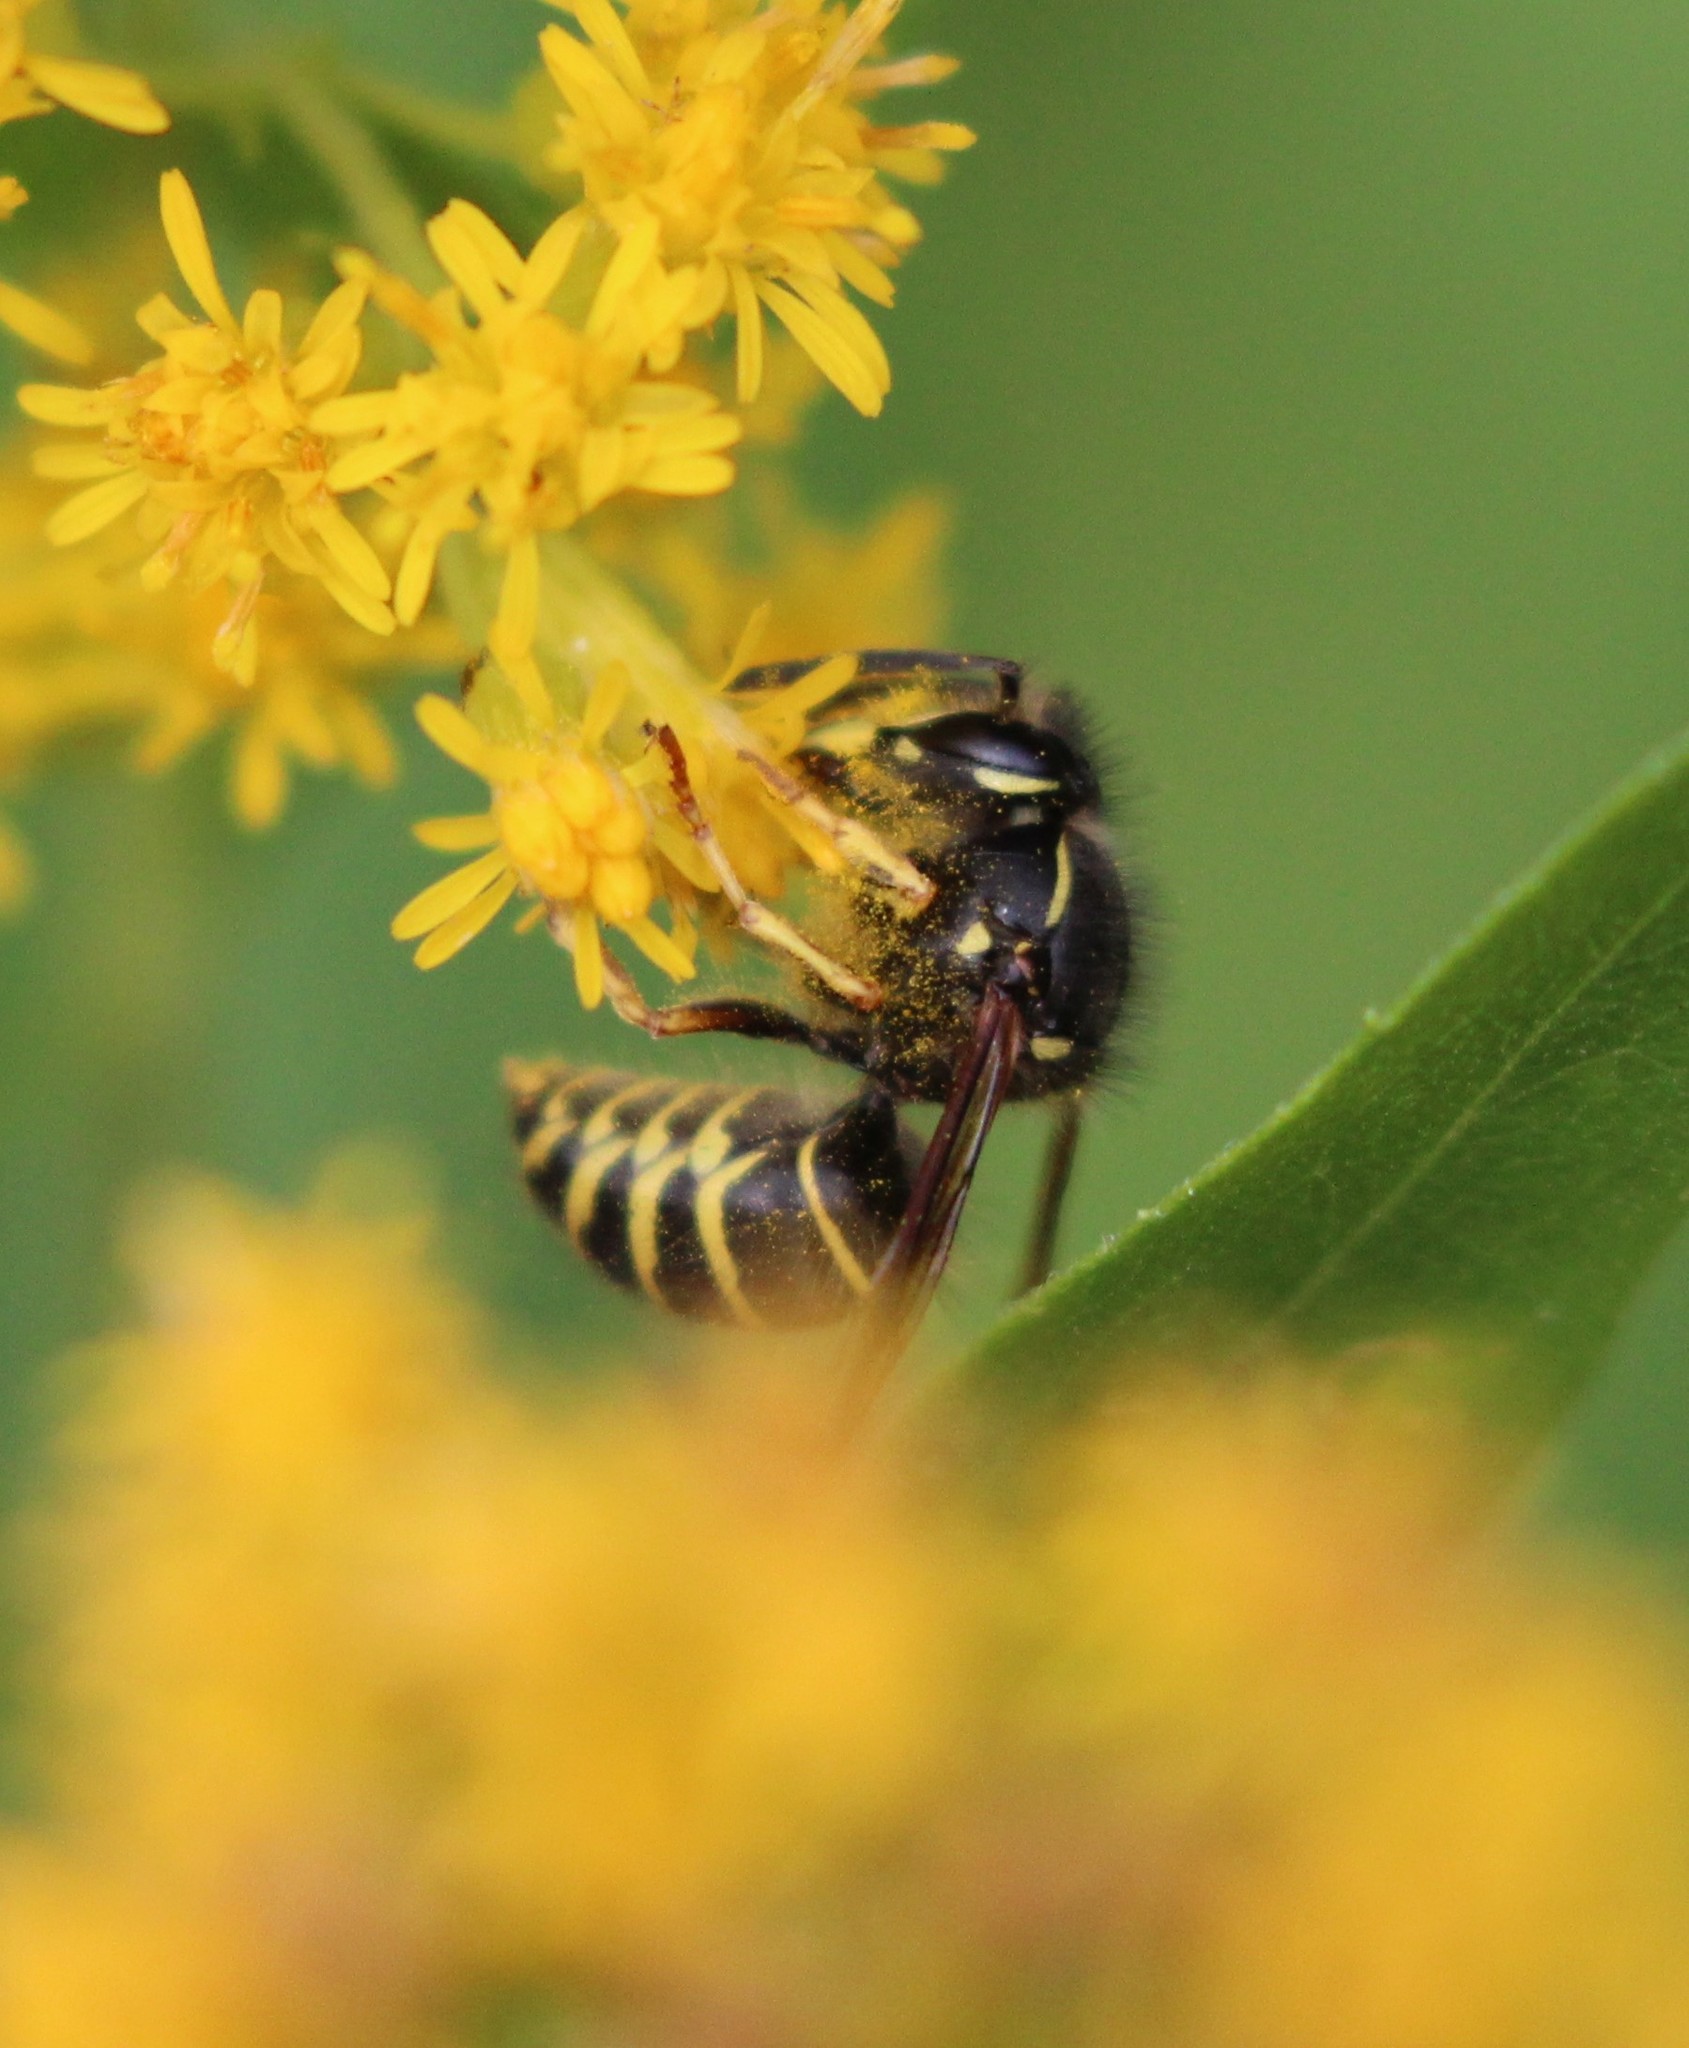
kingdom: Animalia
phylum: Arthropoda
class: Insecta
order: Hymenoptera
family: Vespidae
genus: Dolichovespula
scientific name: Dolichovespula norvegicoides
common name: Northern aerial yellowjacket
